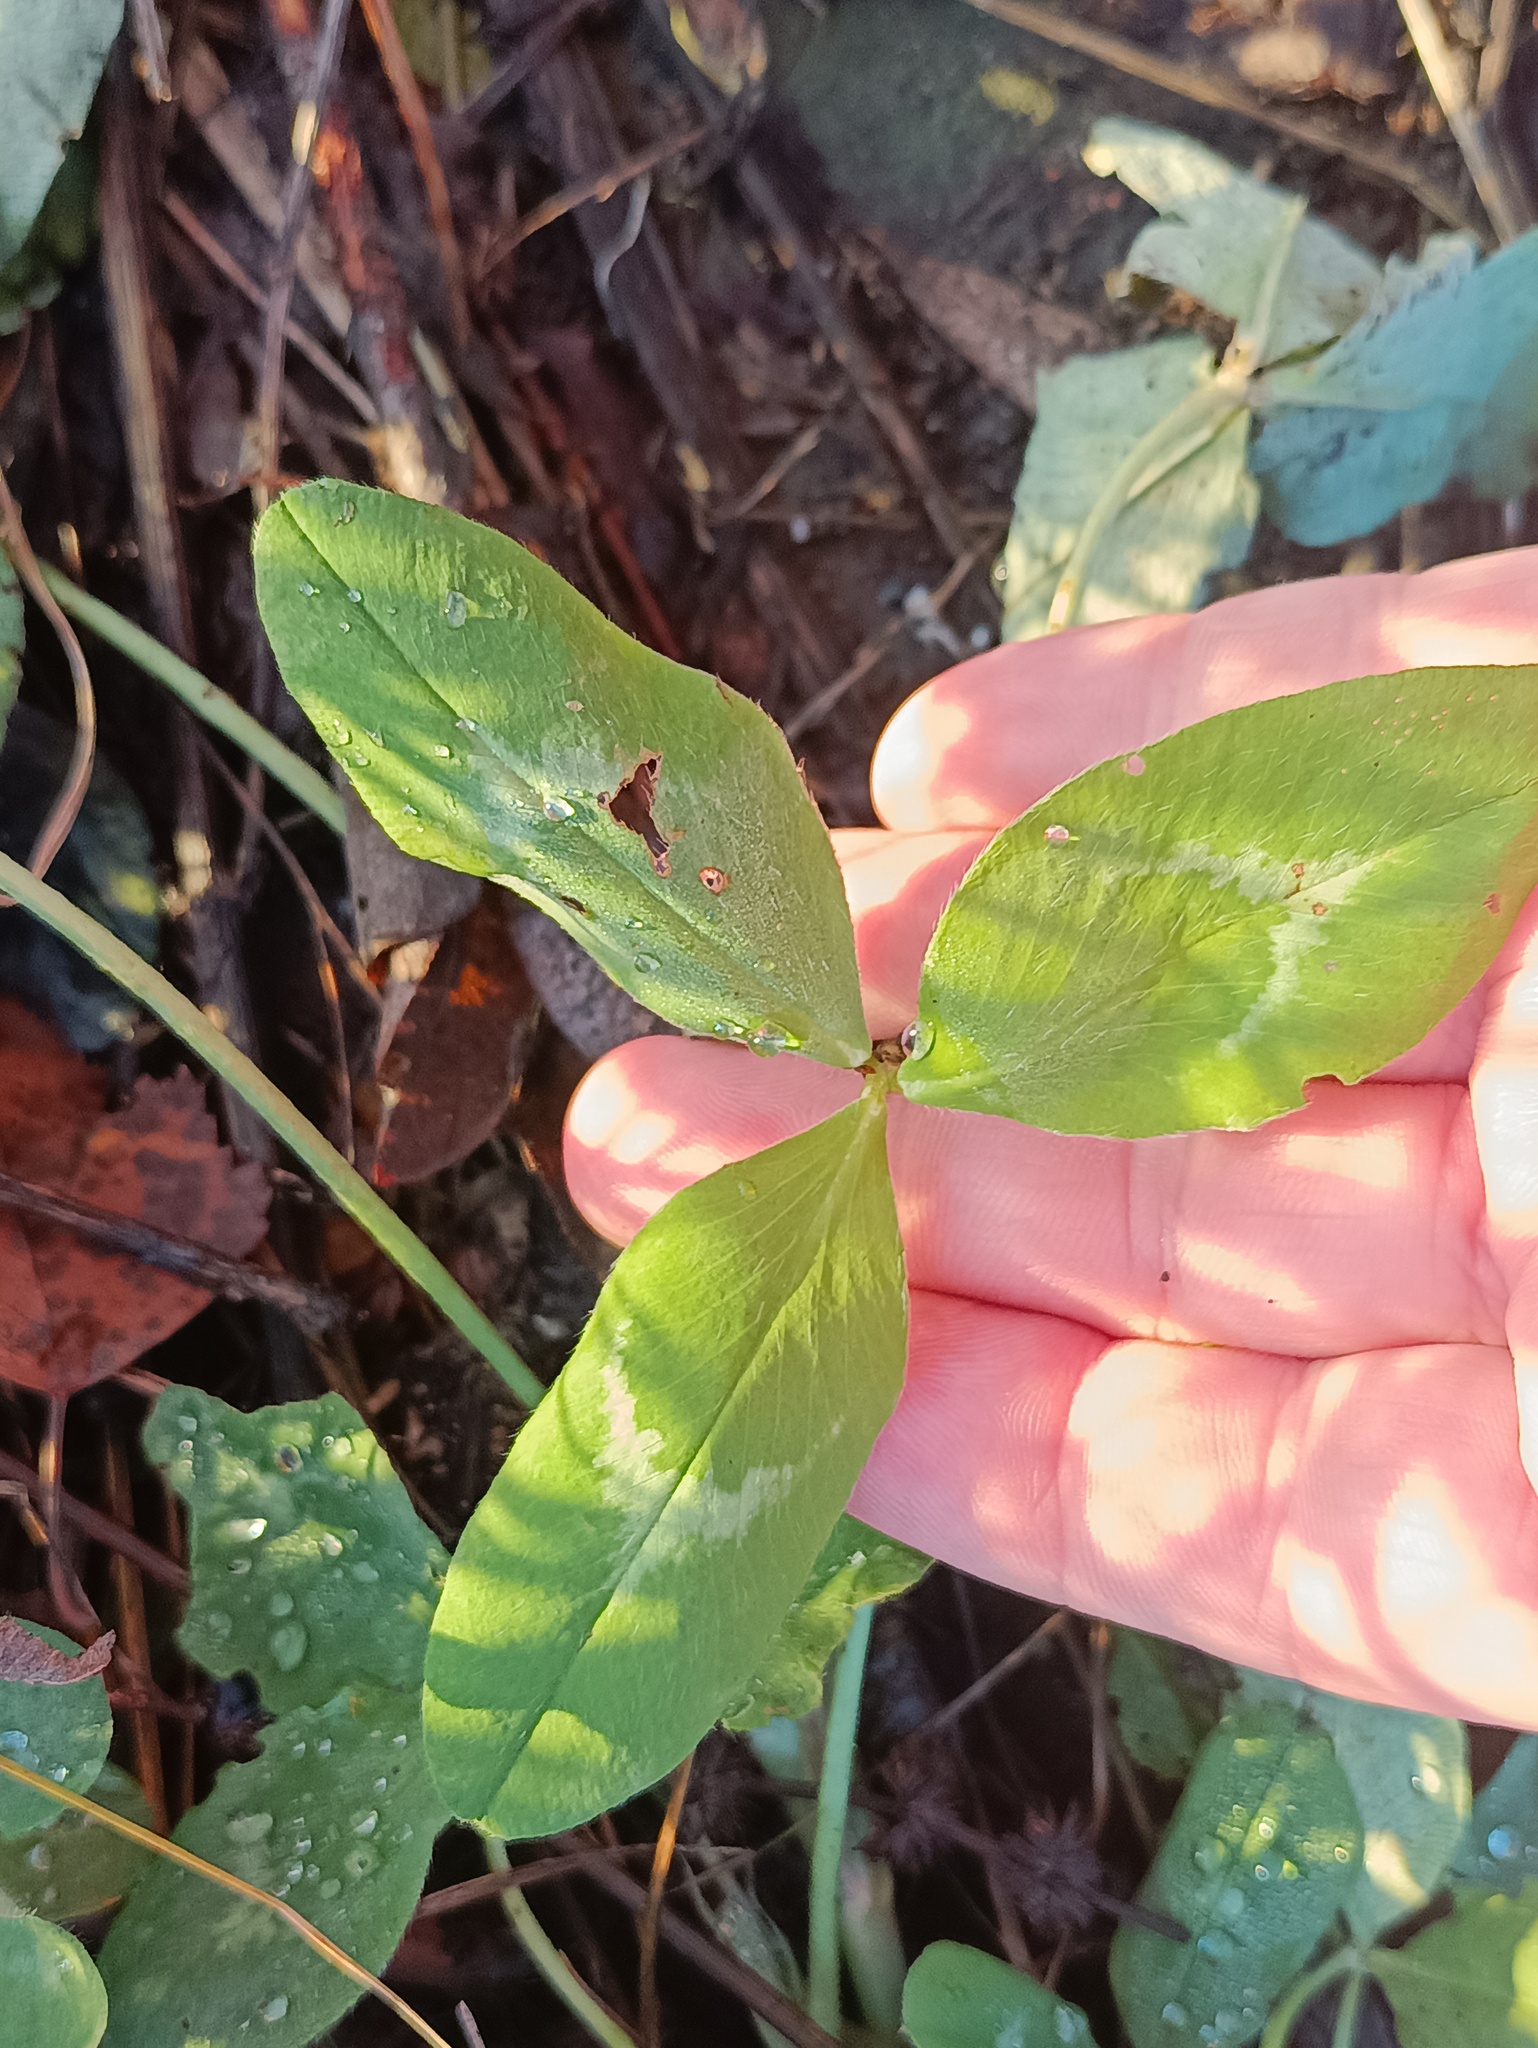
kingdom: Plantae
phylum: Tracheophyta
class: Magnoliopsida
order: Fabales
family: Fabaceae
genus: Trifolium
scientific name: Trifolium pratense
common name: Red clover
